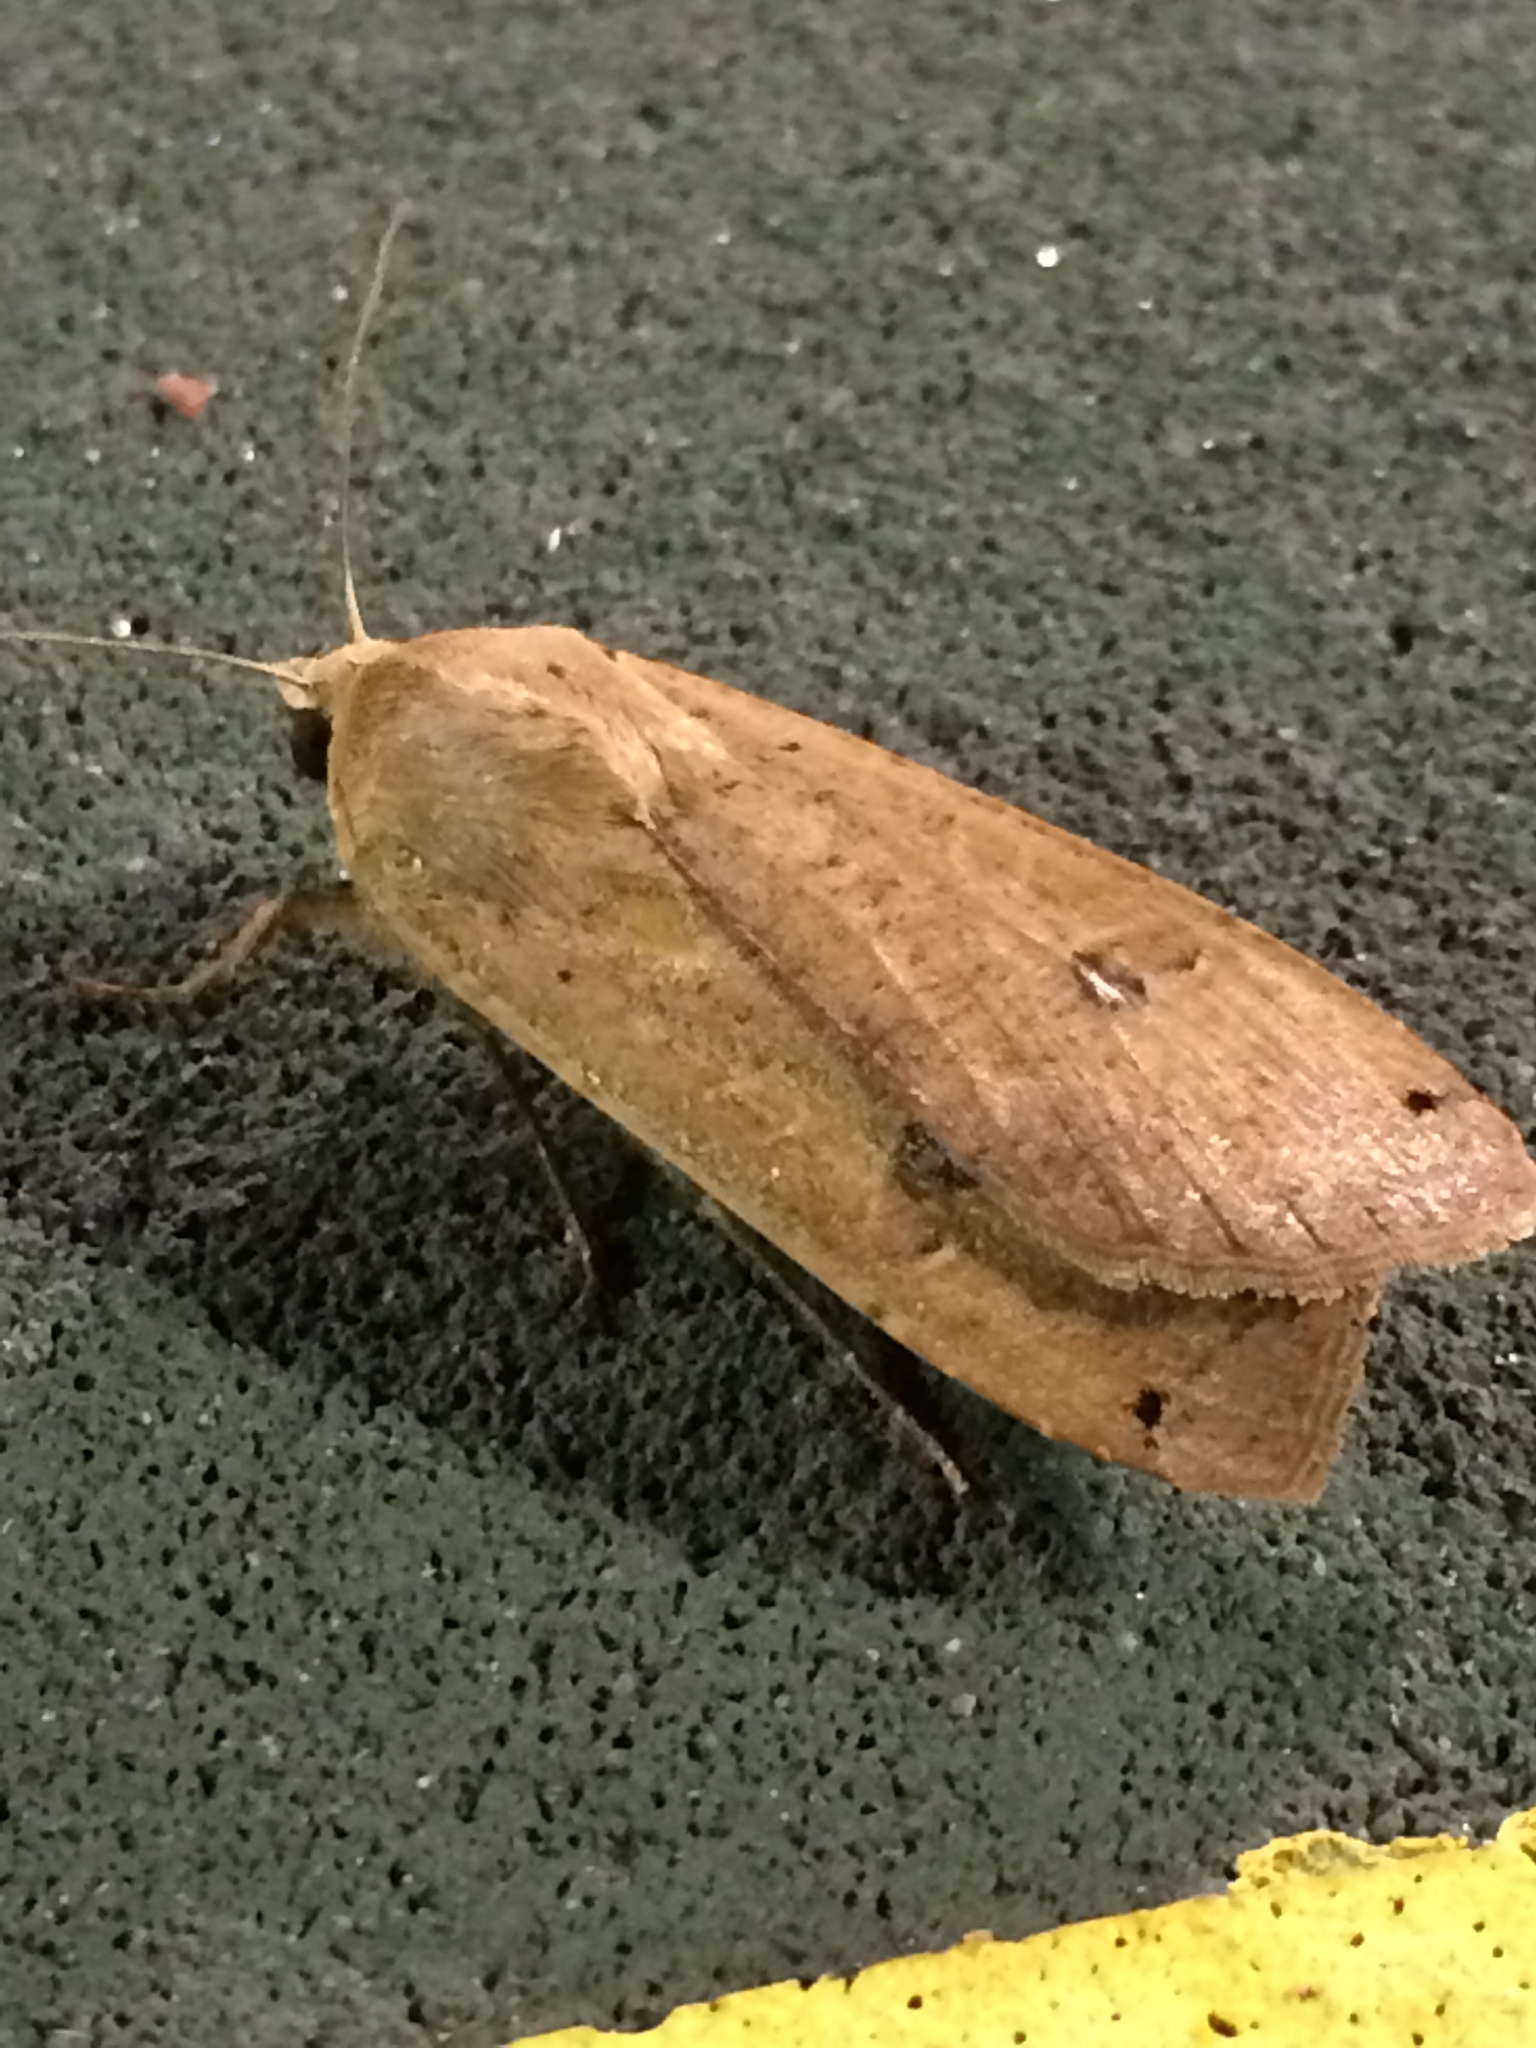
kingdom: Animalia
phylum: Arthropoda
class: Insecta
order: Lepidoptera
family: Noctuidae
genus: Noctua
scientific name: Noctua pronuba
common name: Large yellow underwing
